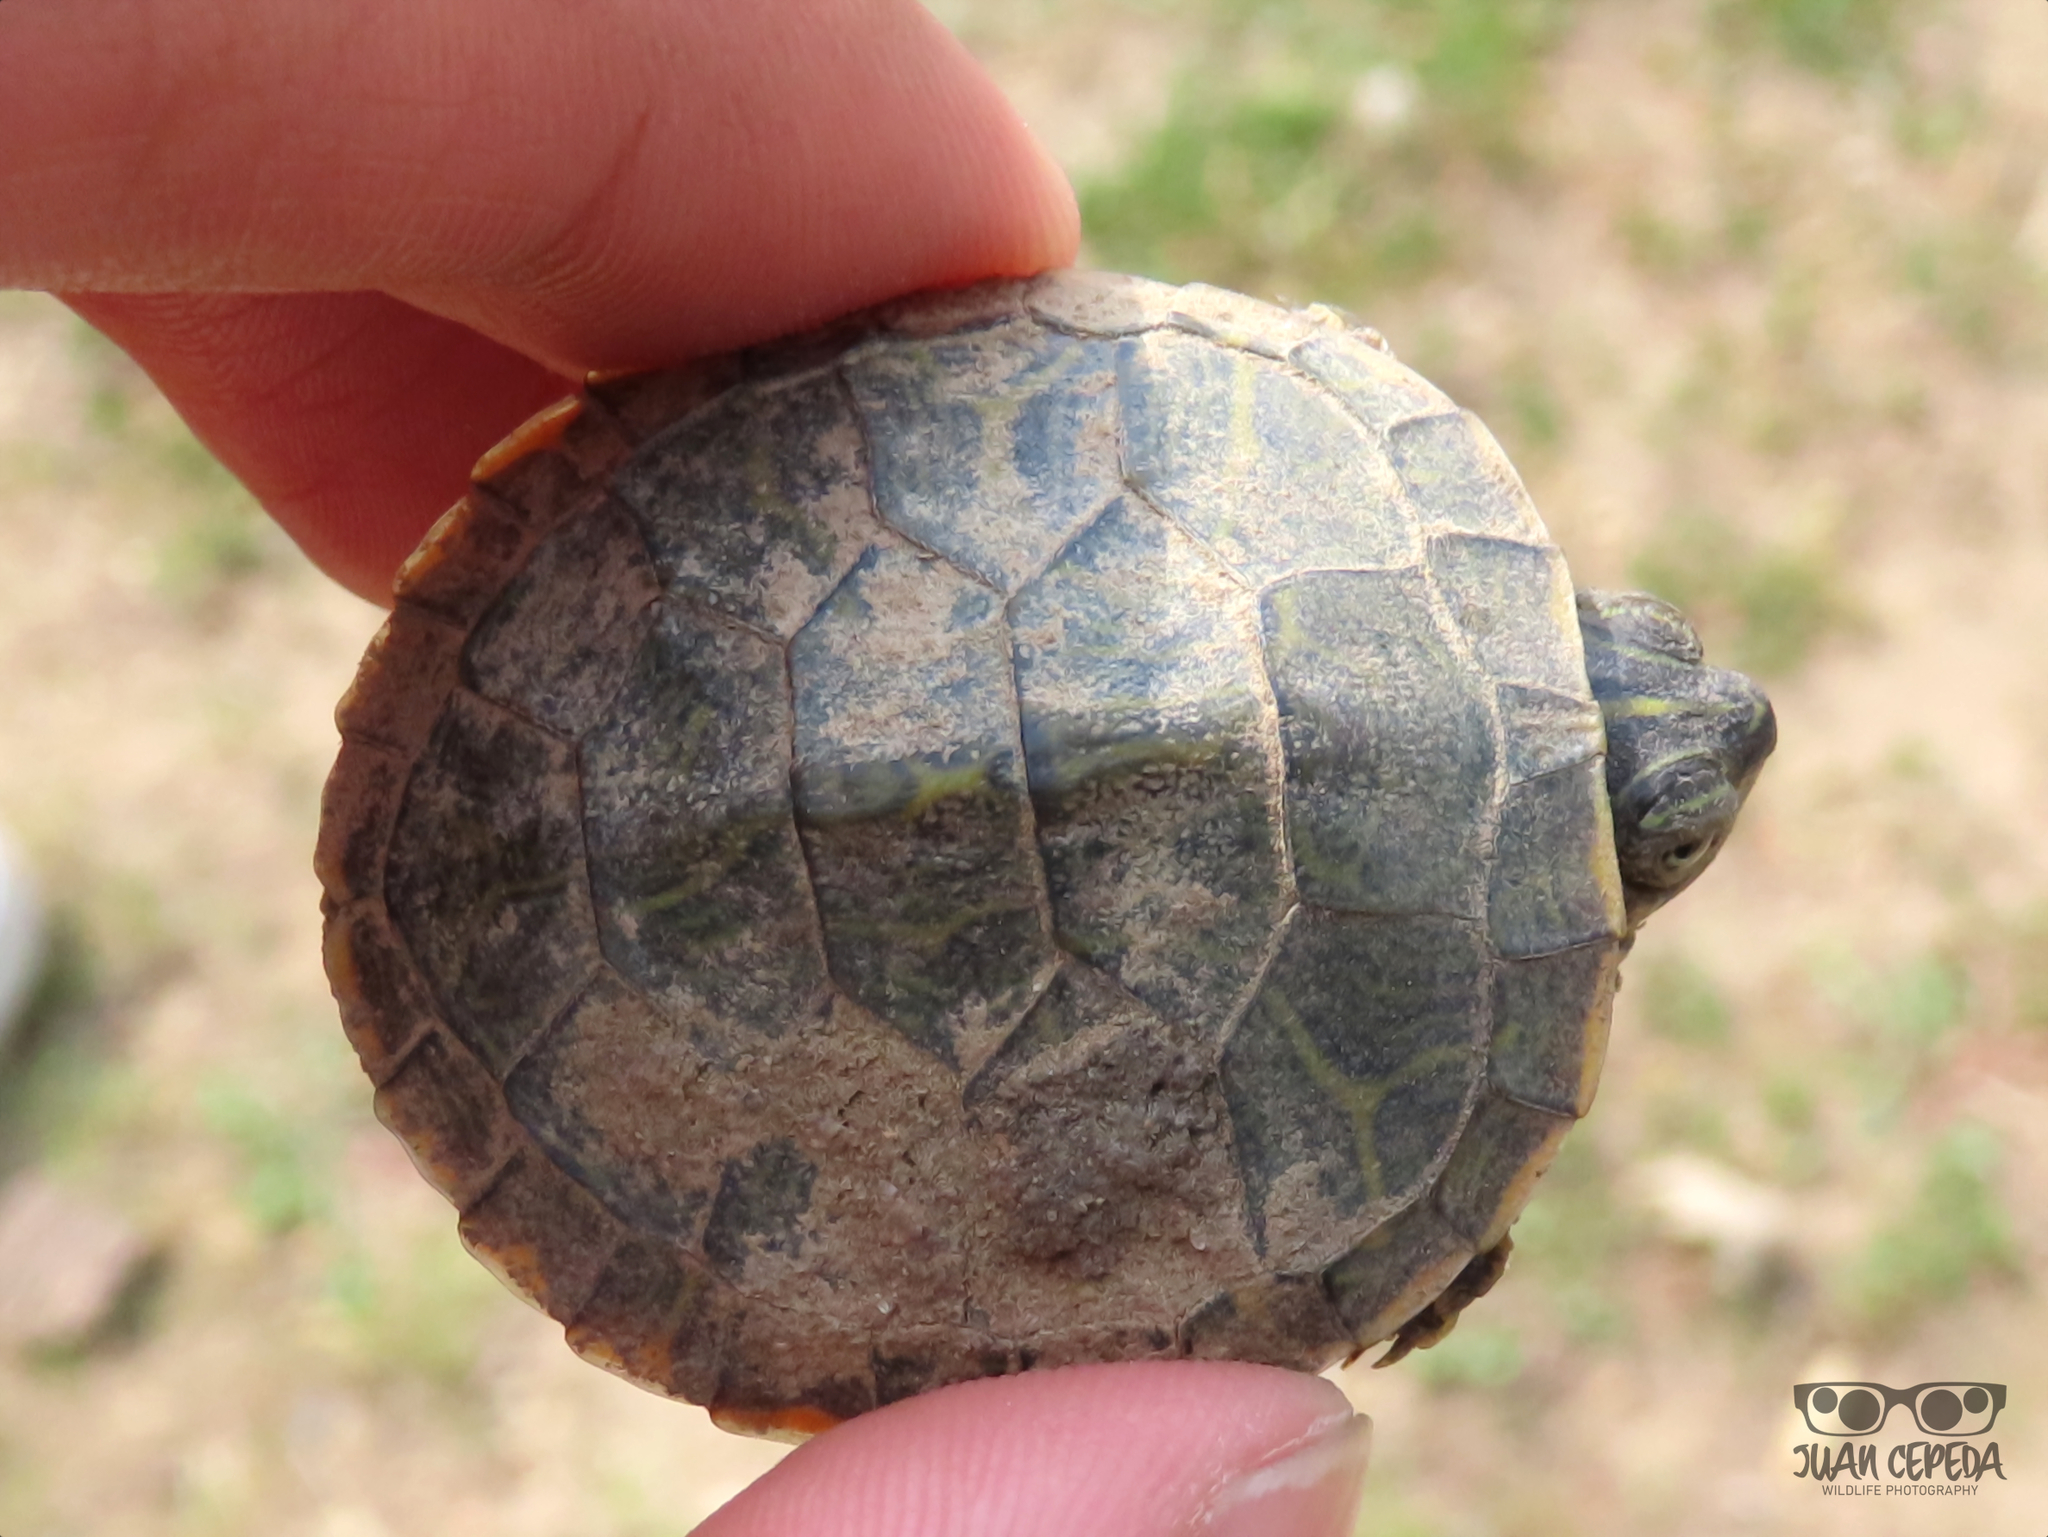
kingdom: Animalia
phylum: Chordata
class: Testudines
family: Emydidae
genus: Pseudemys
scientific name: Pseudemys rubriventris
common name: American red-bellied turtle
